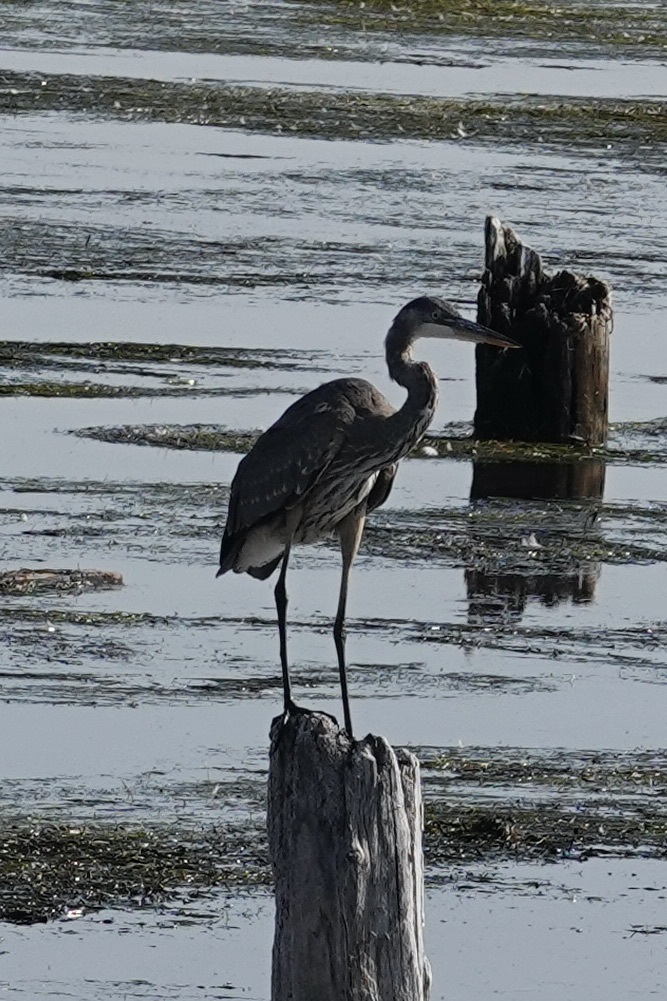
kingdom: Animalia
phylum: Chordata
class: Aves
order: Pelecaniformes
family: Ardeidae
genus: Ardea
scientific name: Ardea herodias
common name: Great blue heron
